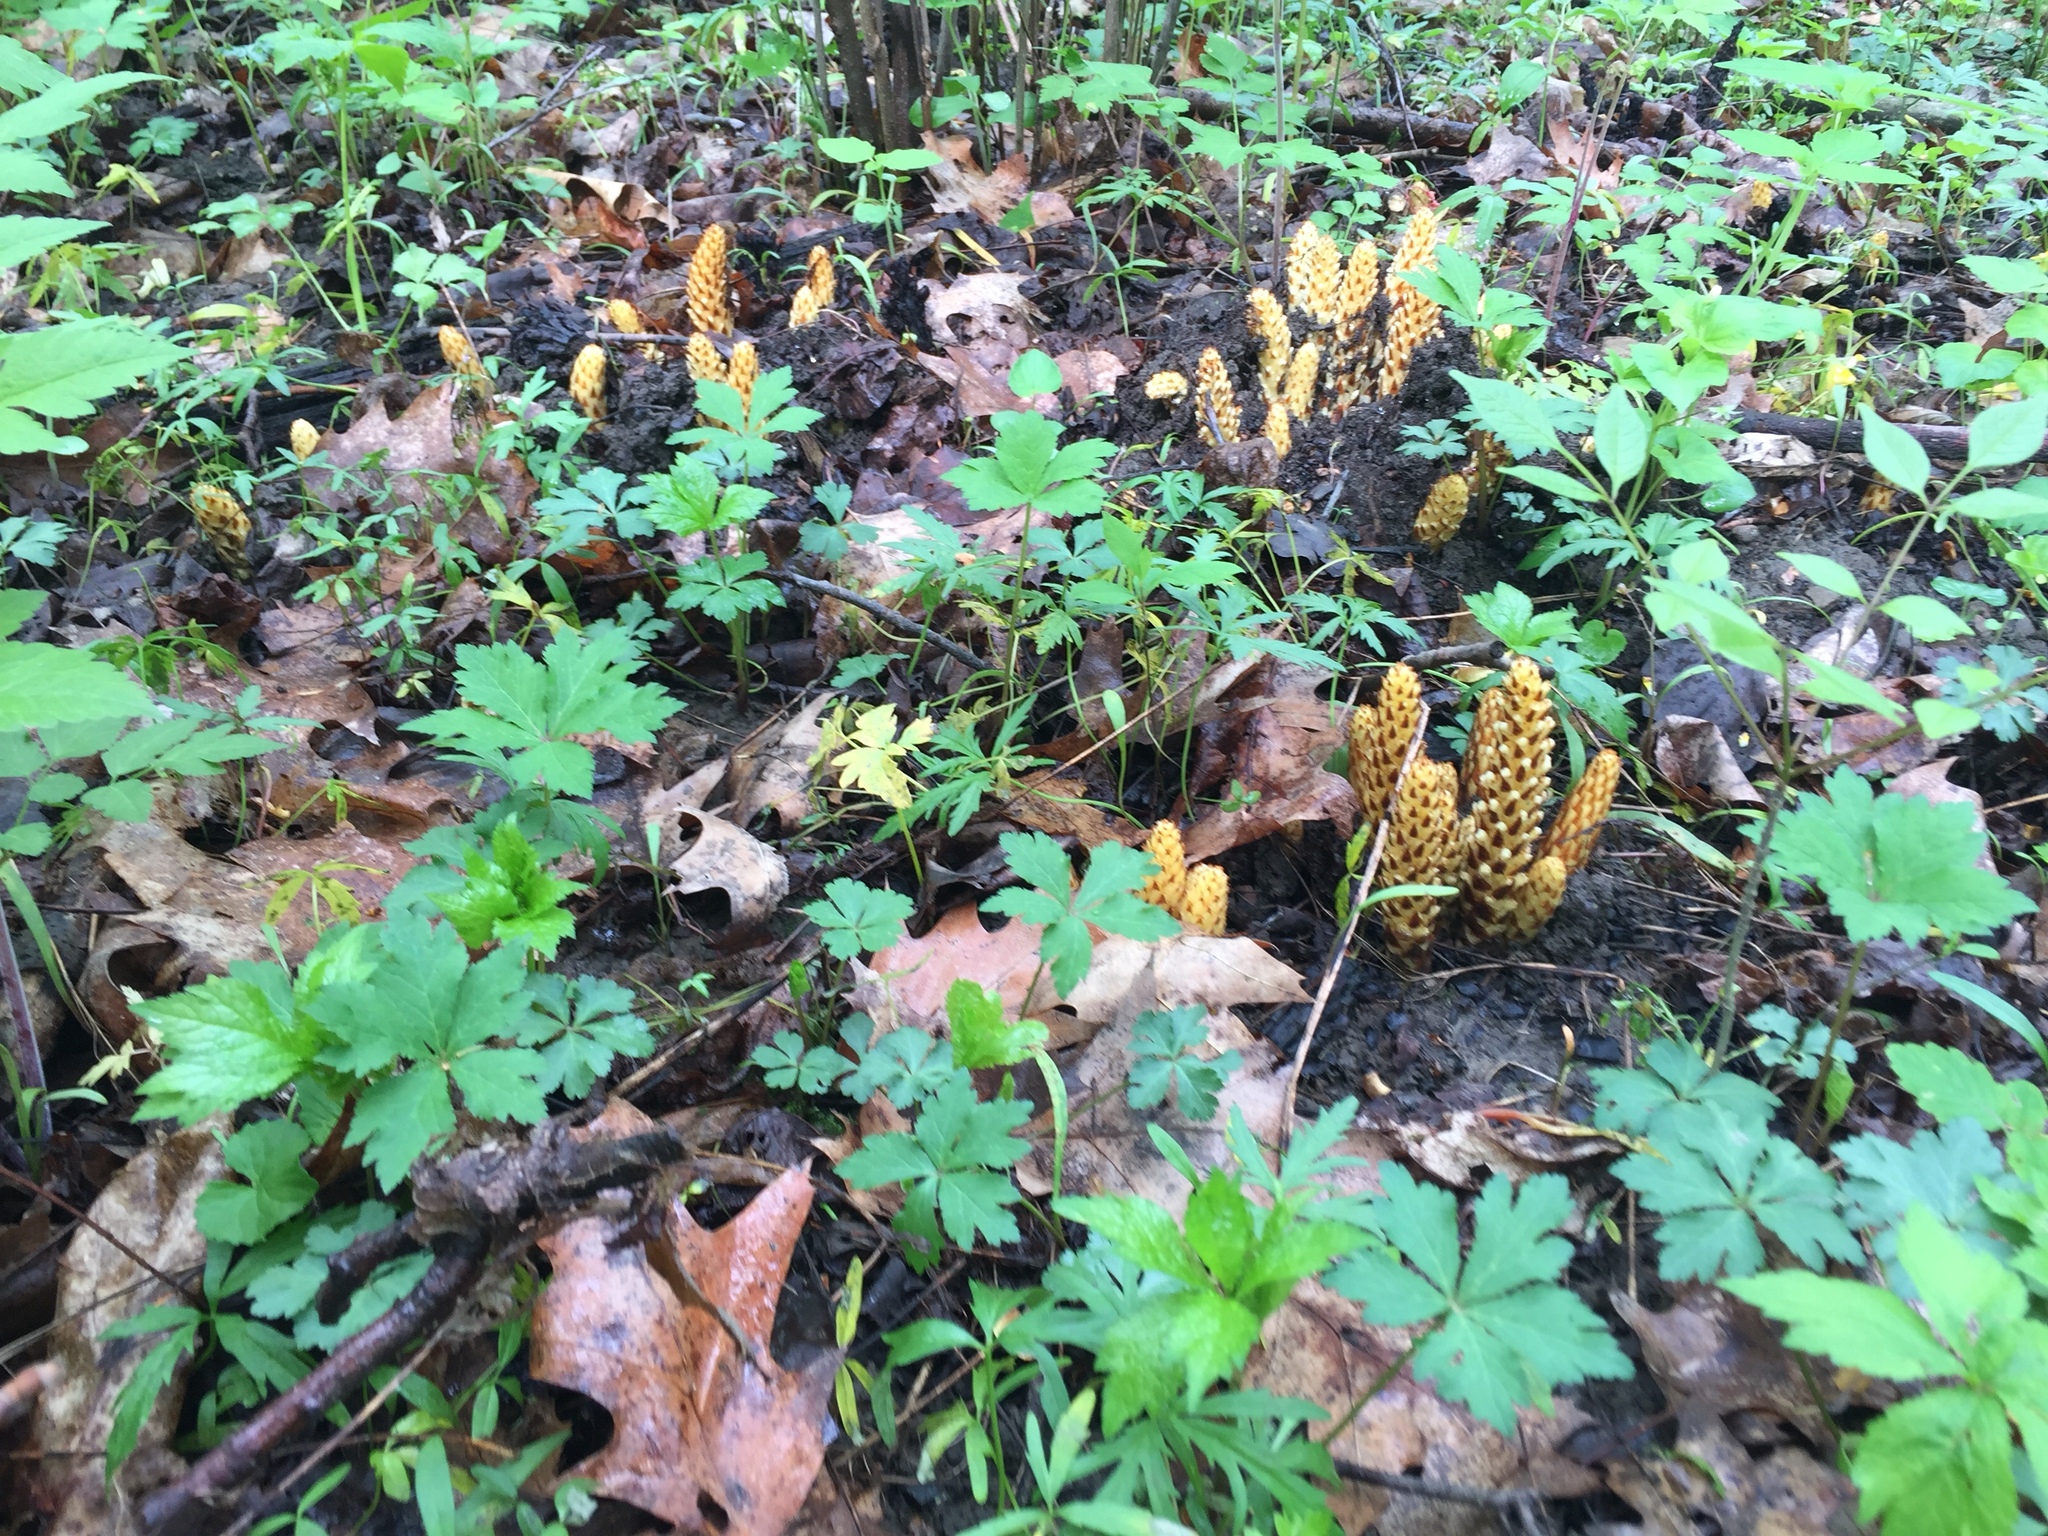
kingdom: Plantae
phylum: Tracheophyta
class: Magnoliopsida
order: Lamiales
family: Orobanchaceae
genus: Conopholis
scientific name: Conopholis americana
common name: American cancer-root
